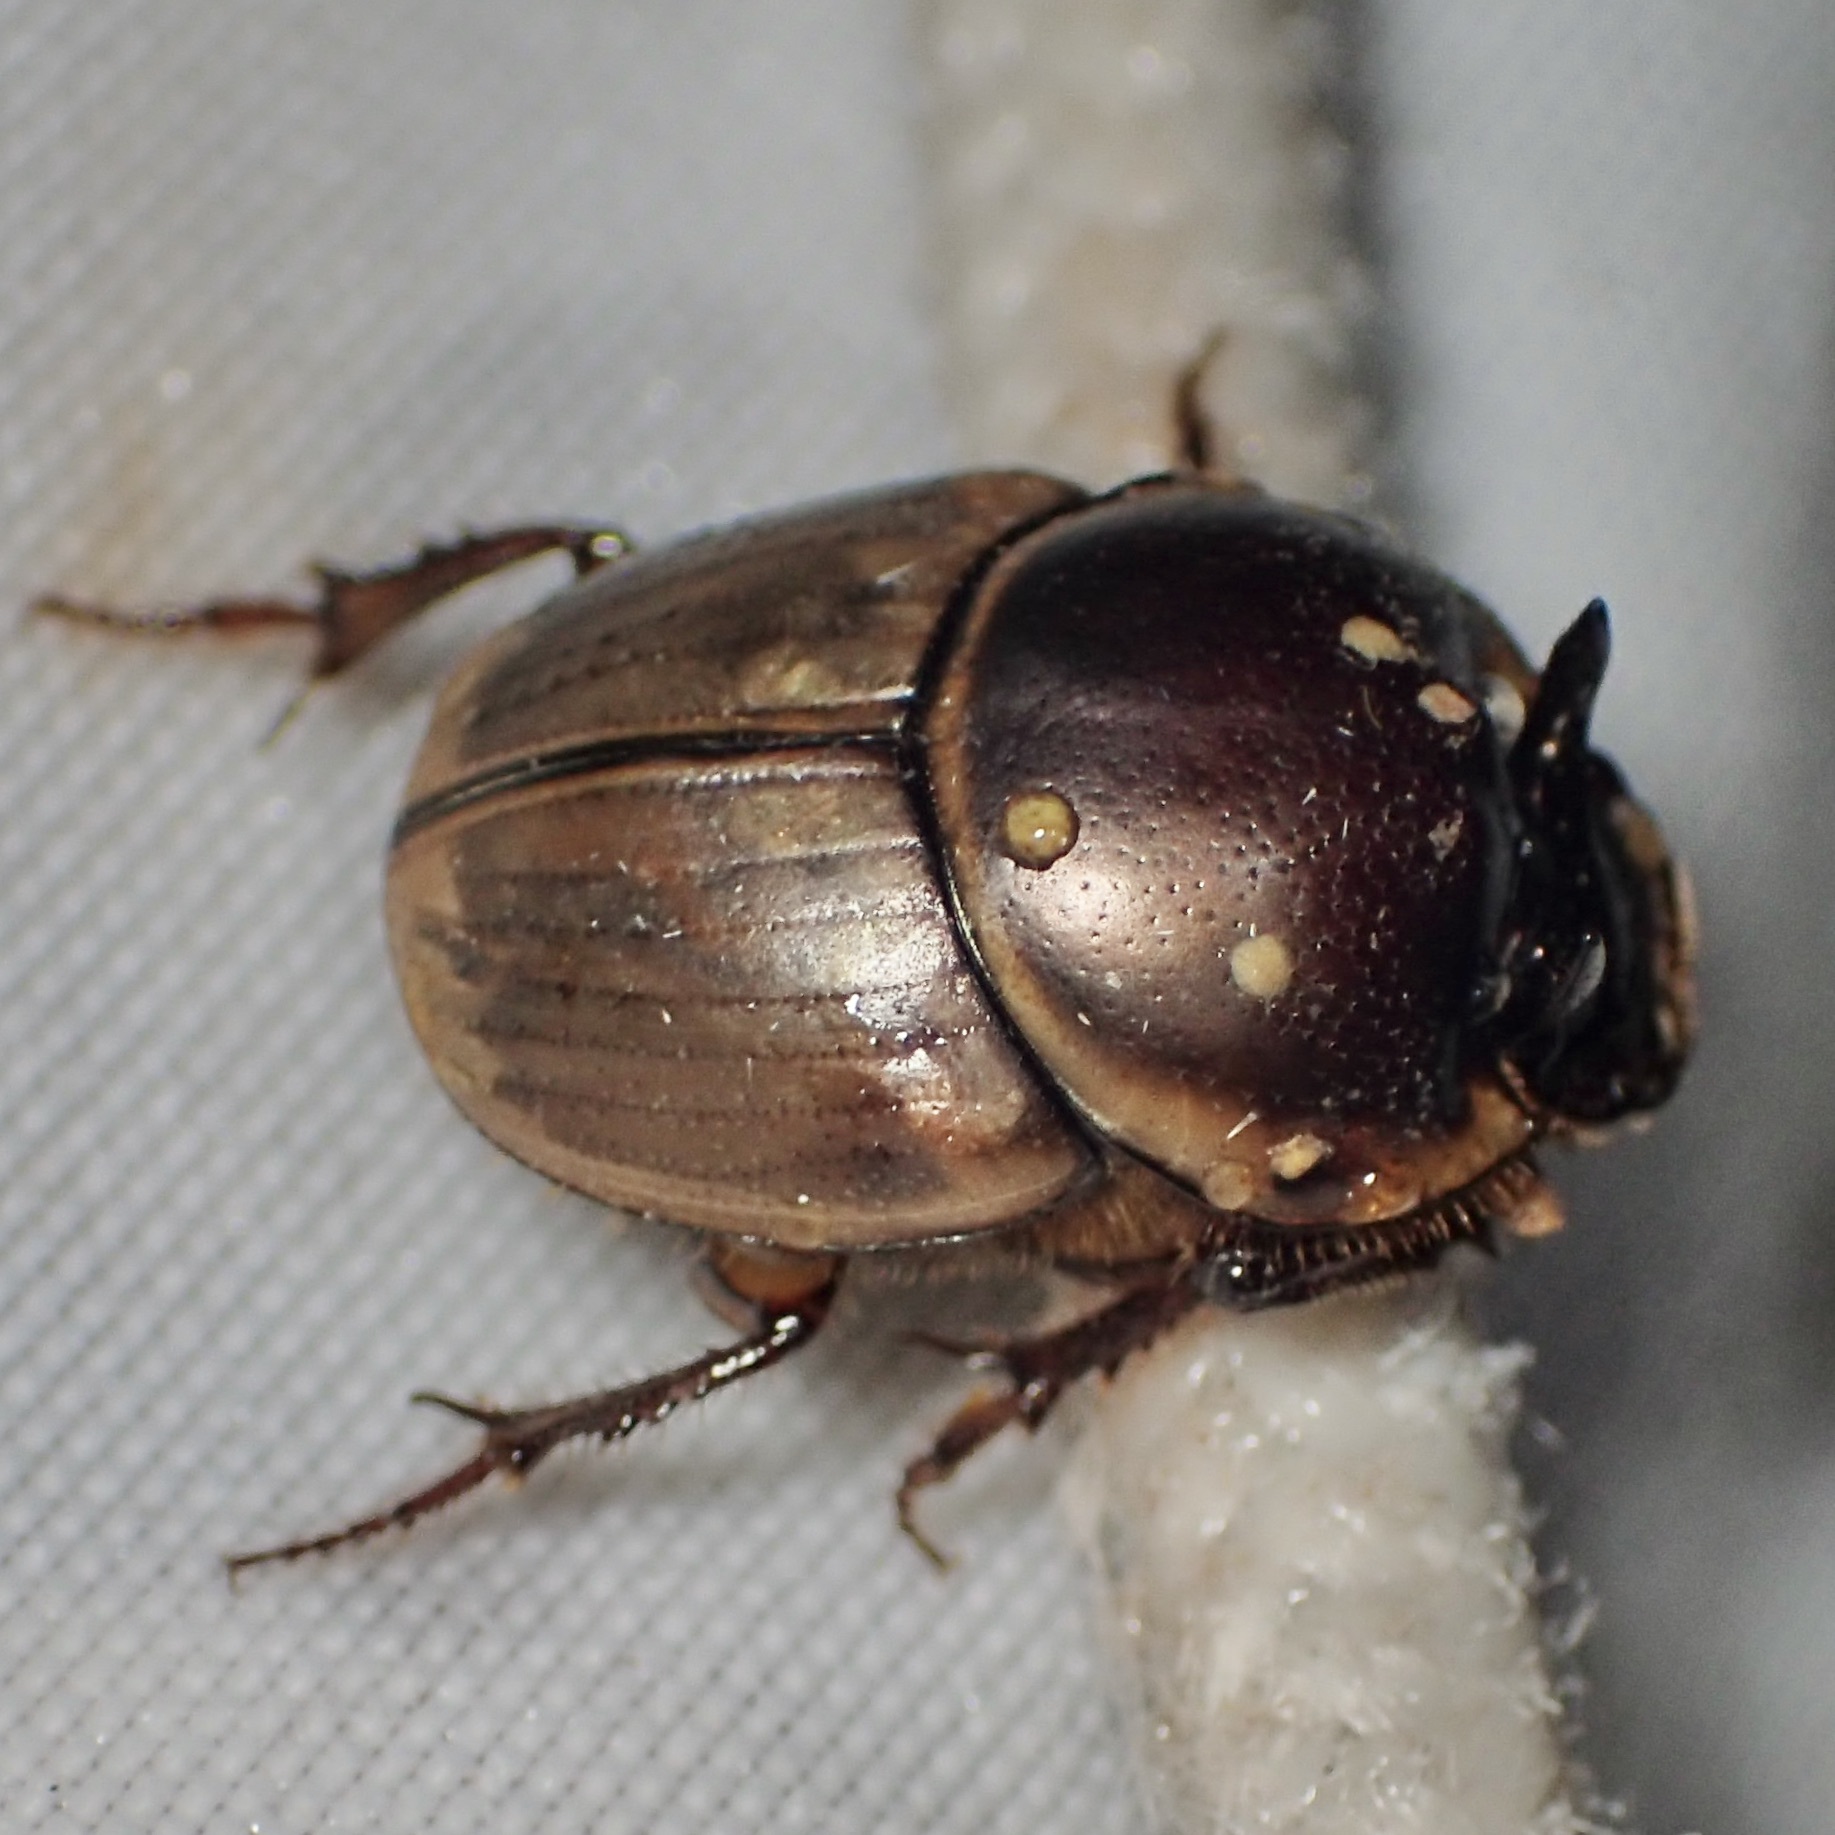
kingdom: Animalia
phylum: Arthropoda
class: Insecta
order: Coleoptera
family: Scarabaeidae
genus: Digitonthophagus
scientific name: Digitonthophagus gazella
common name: Brown dung beetle
